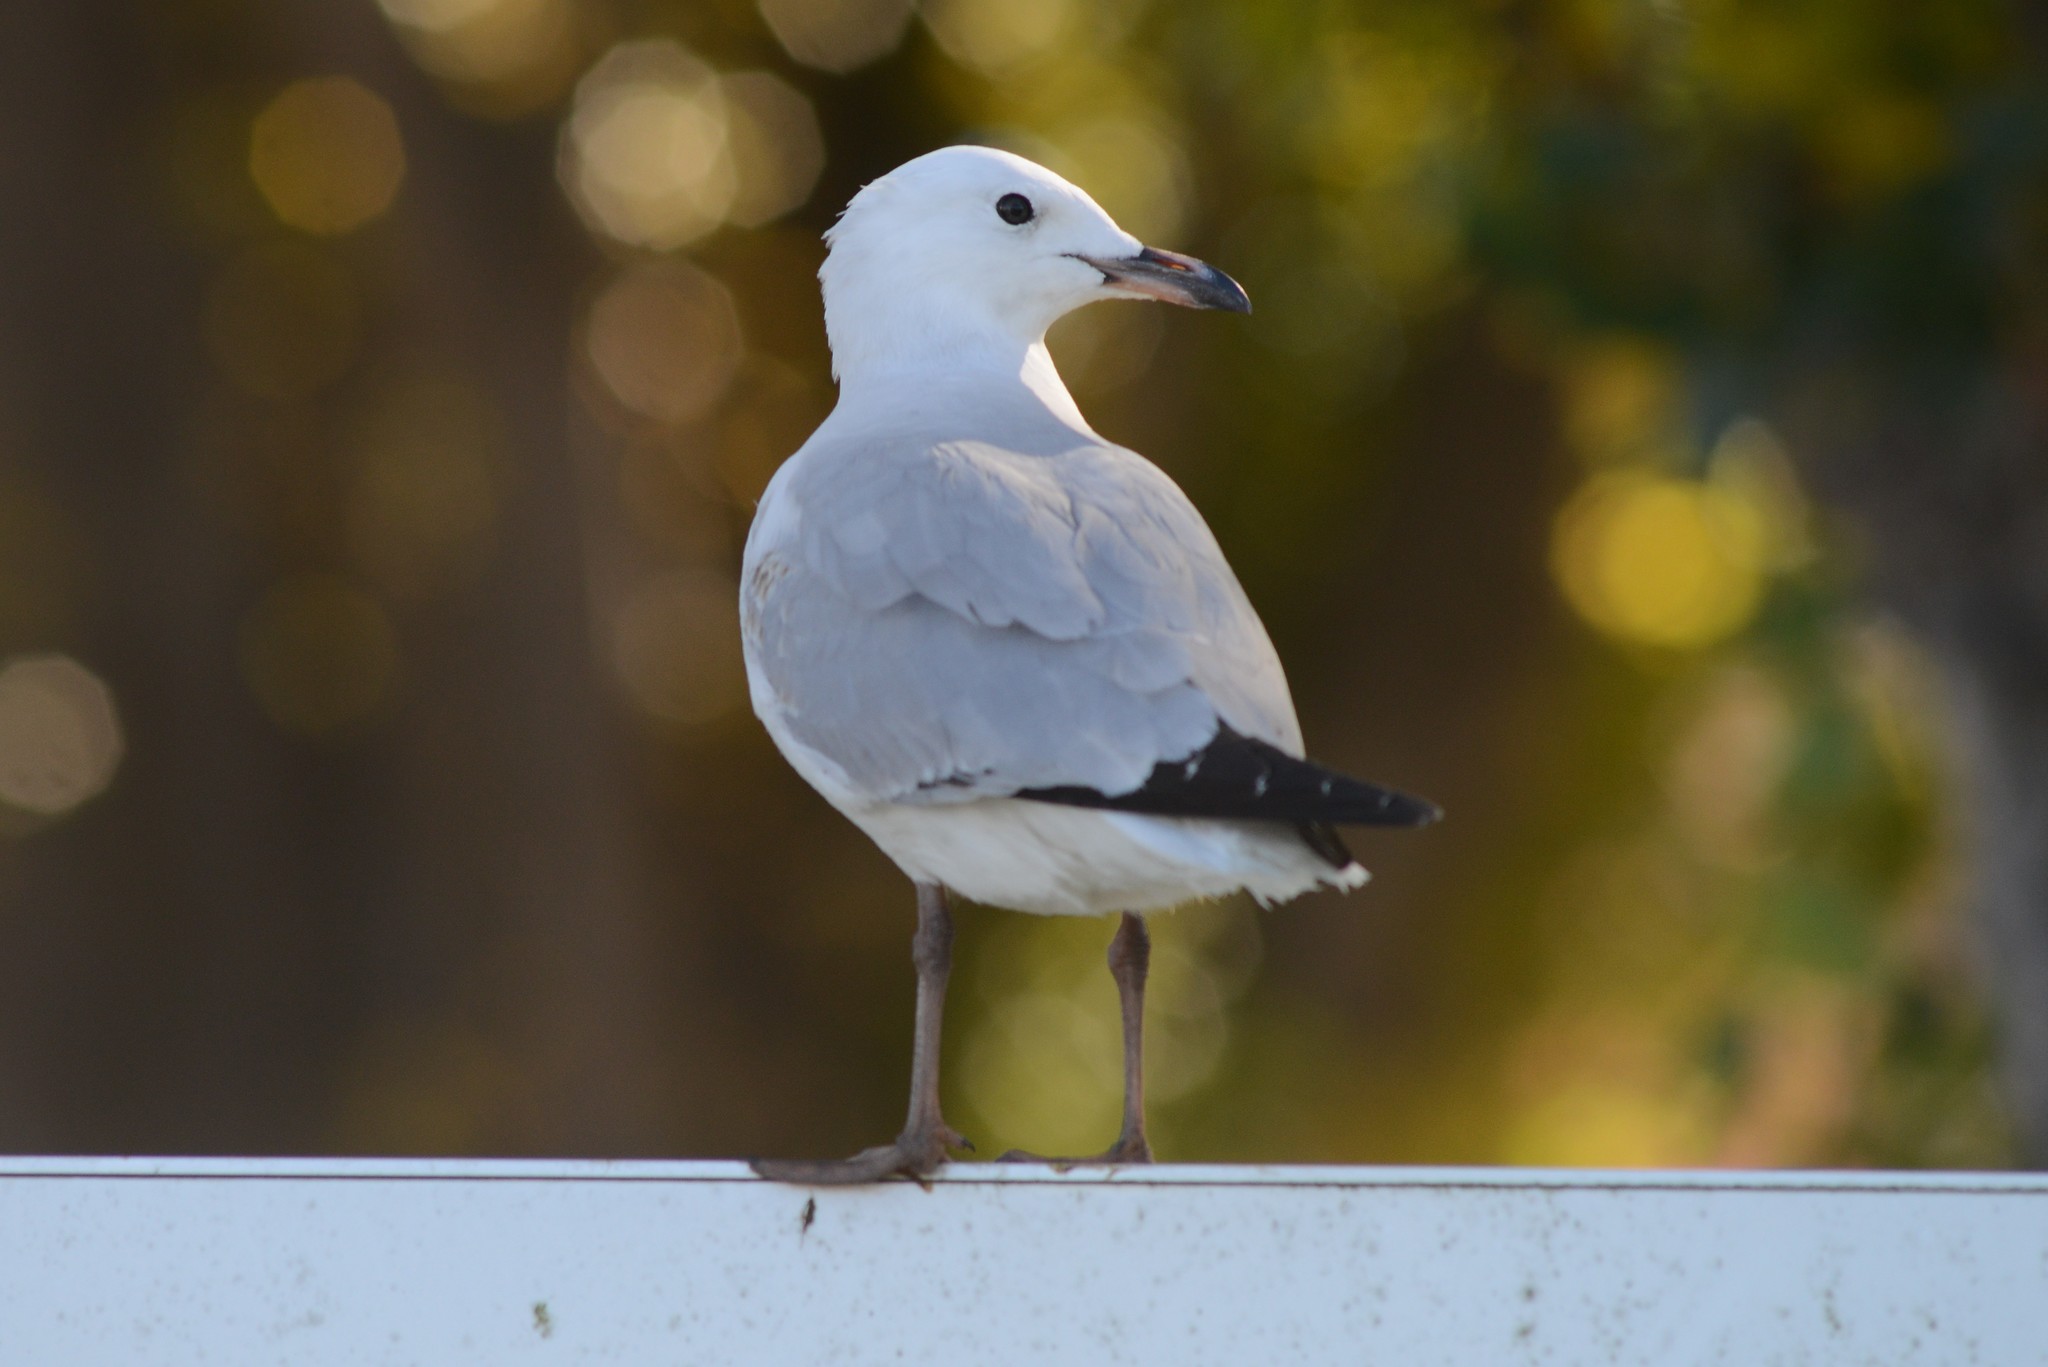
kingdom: Animalia
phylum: Chordata
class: Aves
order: Charadriiformes
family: Laridae
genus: Chroicocephalus
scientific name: Chroicocephalus novaehollandiae
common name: Silver gull
